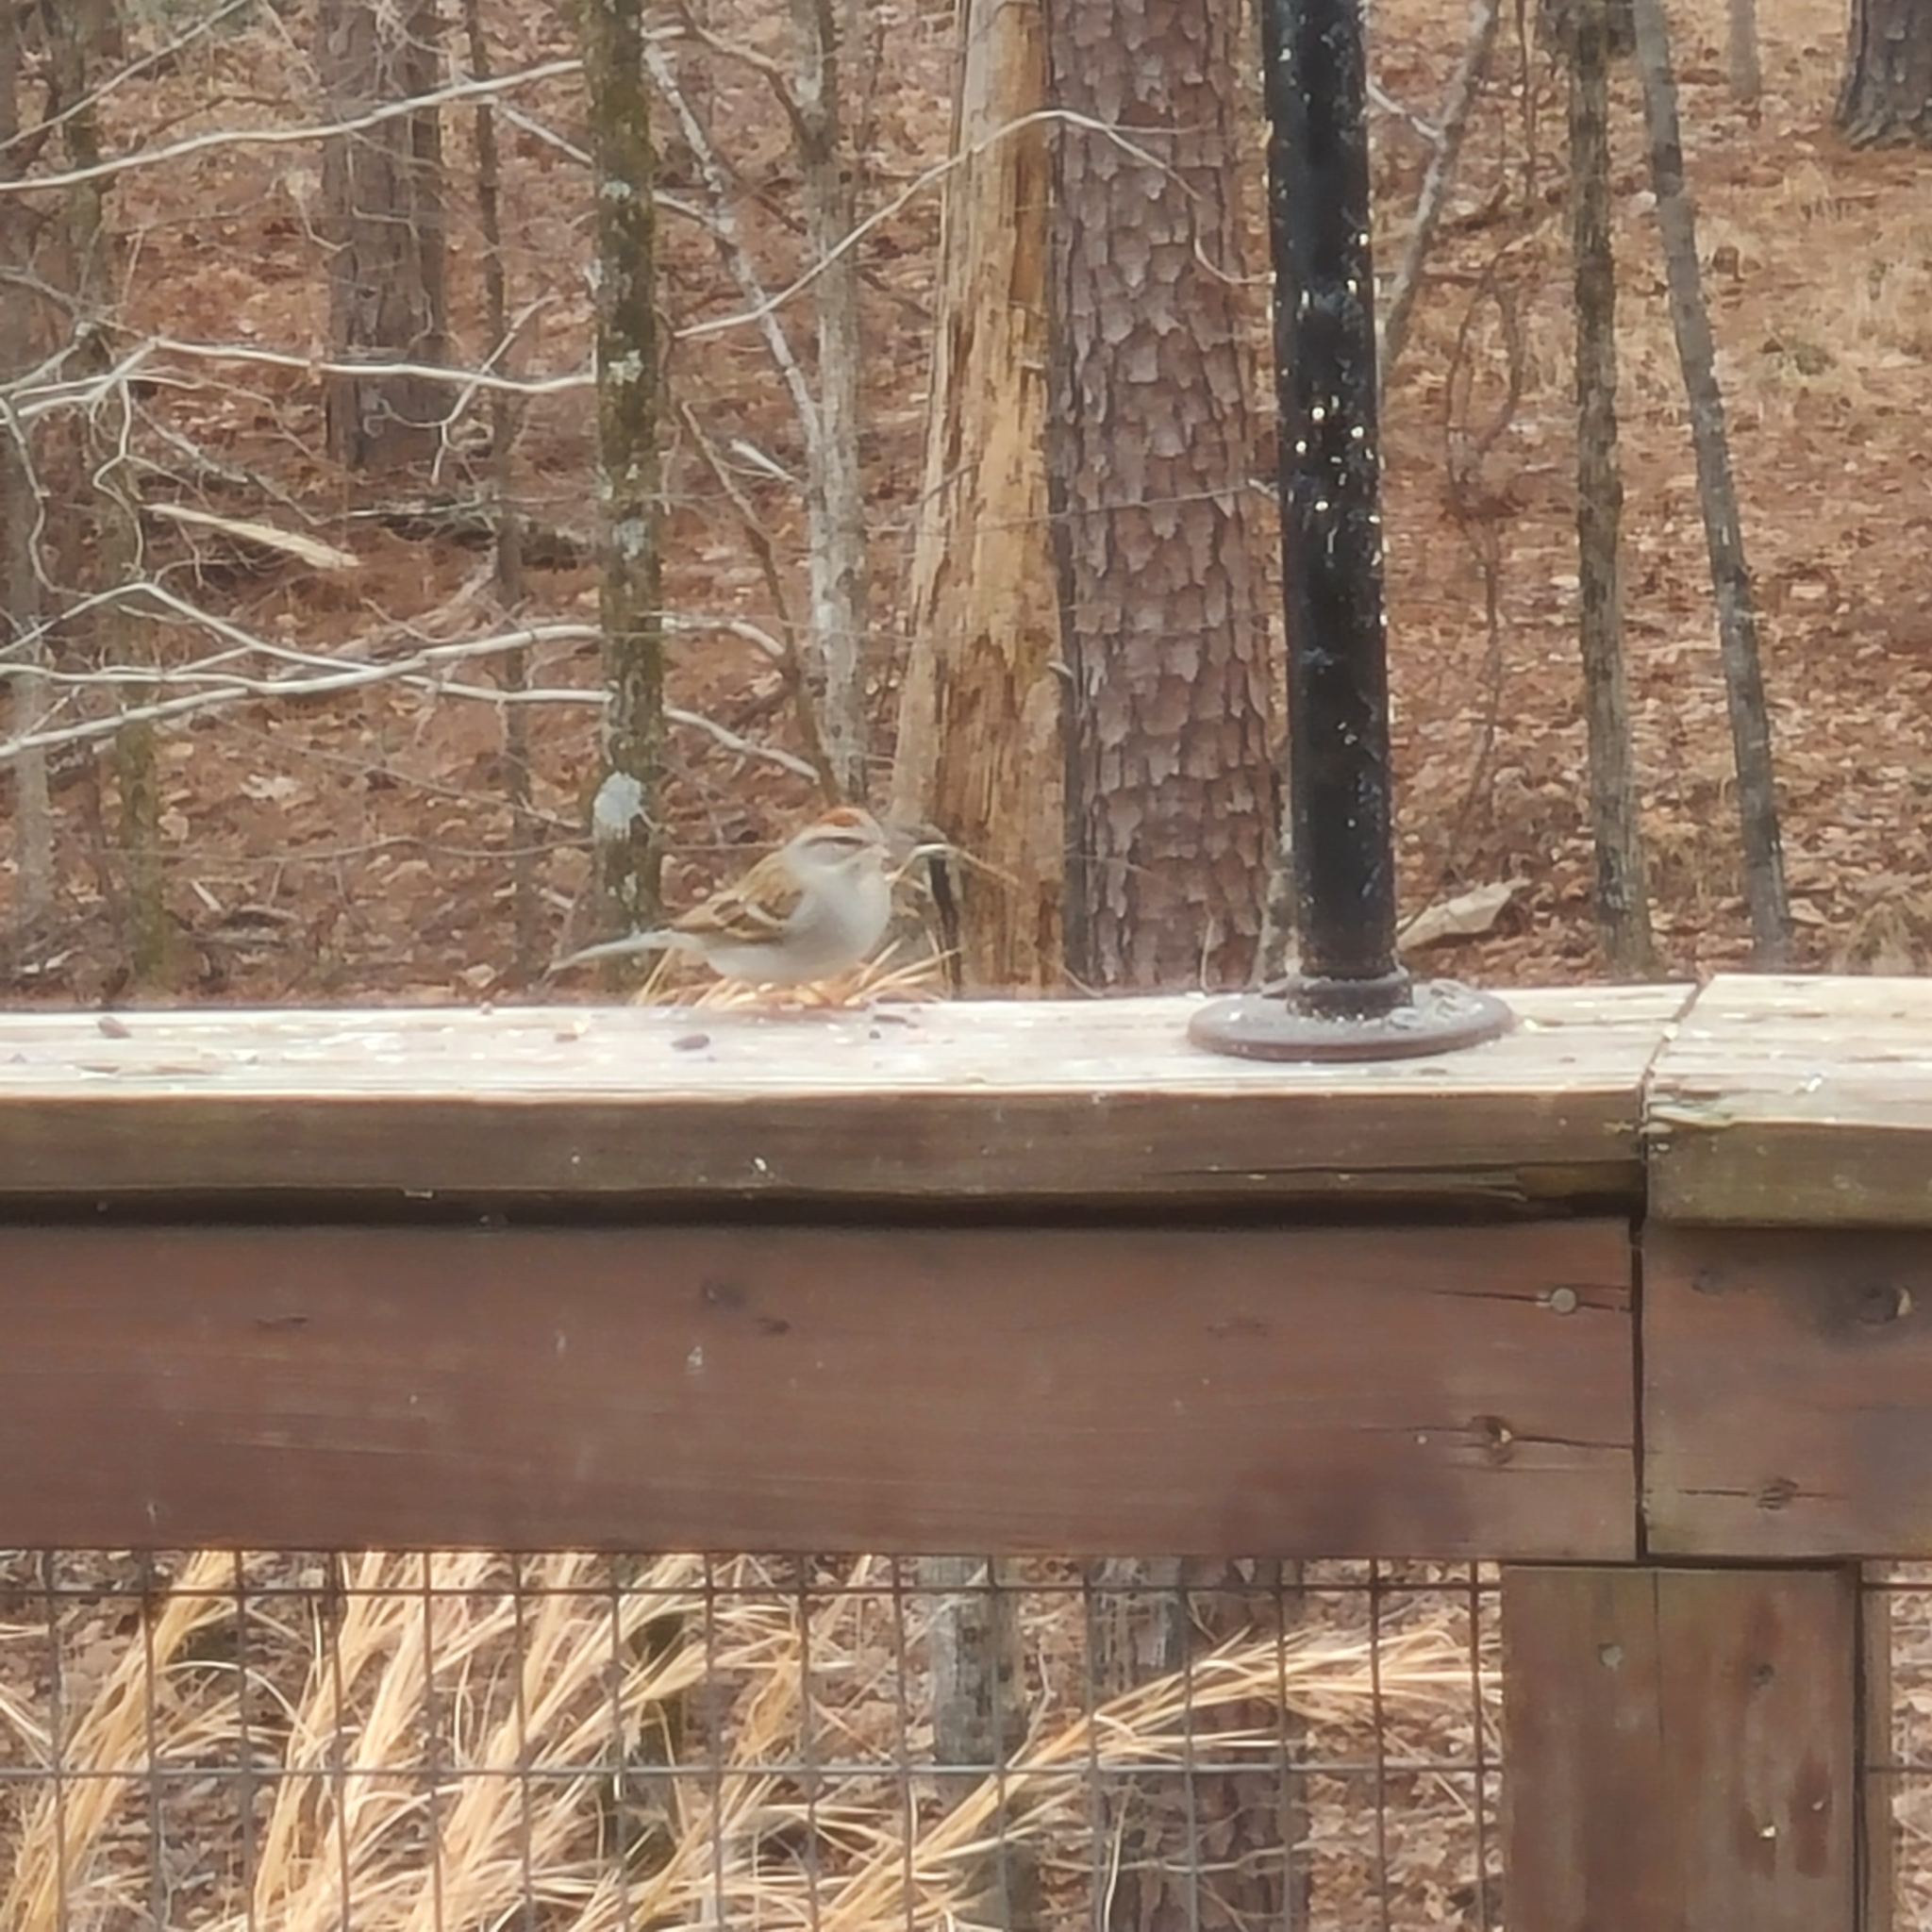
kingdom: Animalia
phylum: Chordata
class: Aves
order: Passeriformes
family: Passerellidae
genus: Spizella
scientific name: Spizella passerina
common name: Chipping sparrow
